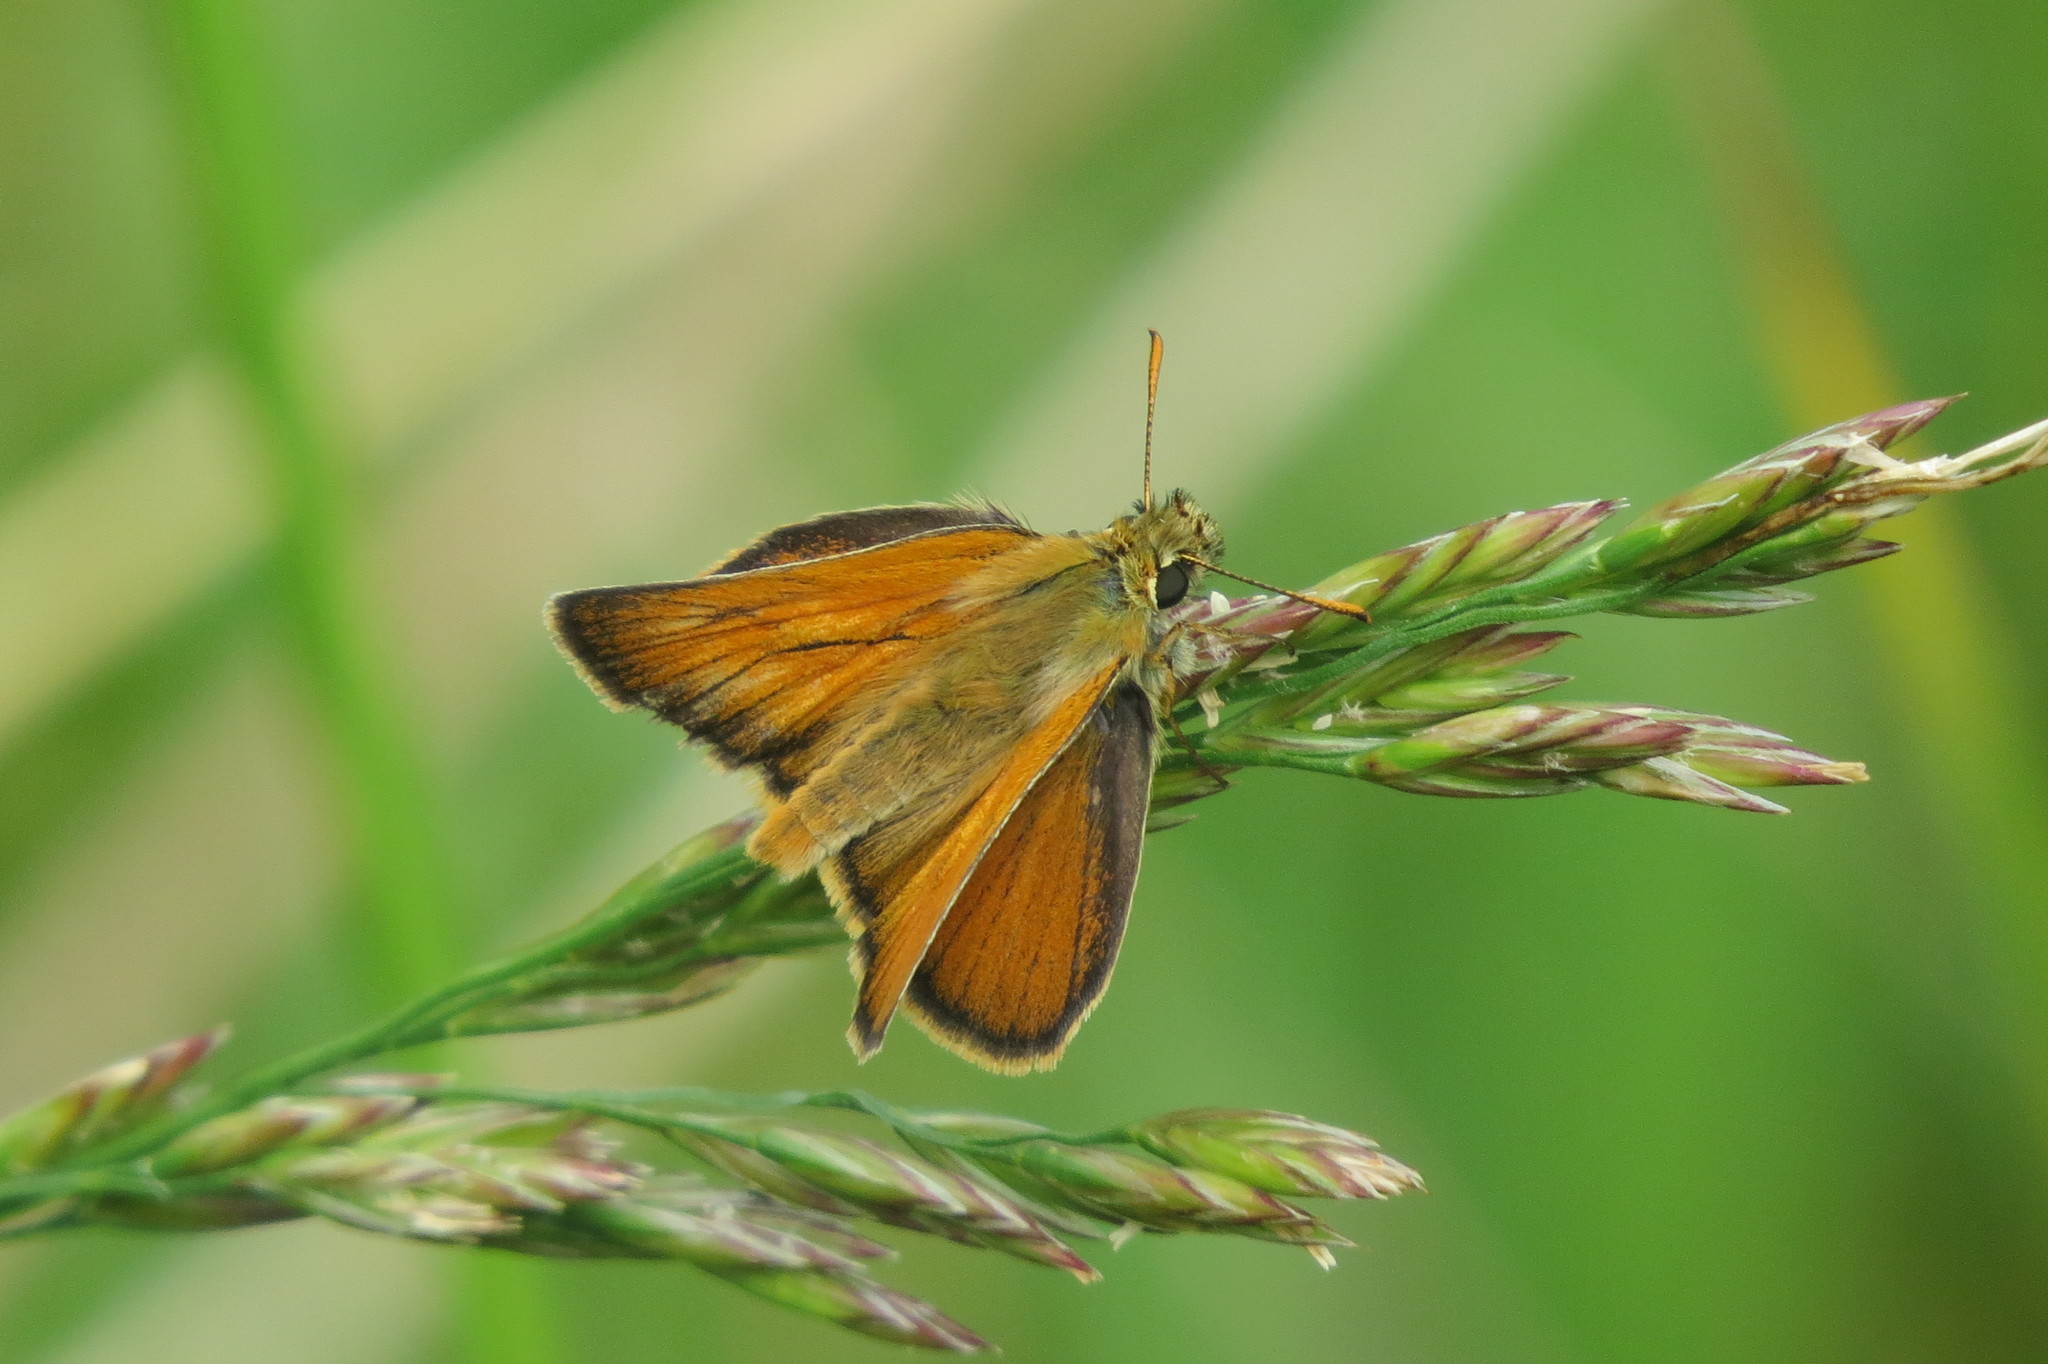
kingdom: Animalia
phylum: Arthropoda
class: Insecta
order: Lepidoptera
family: Hesperiidae
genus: Thymelicus
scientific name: Thymelicus sylvestris
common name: Small skipper
